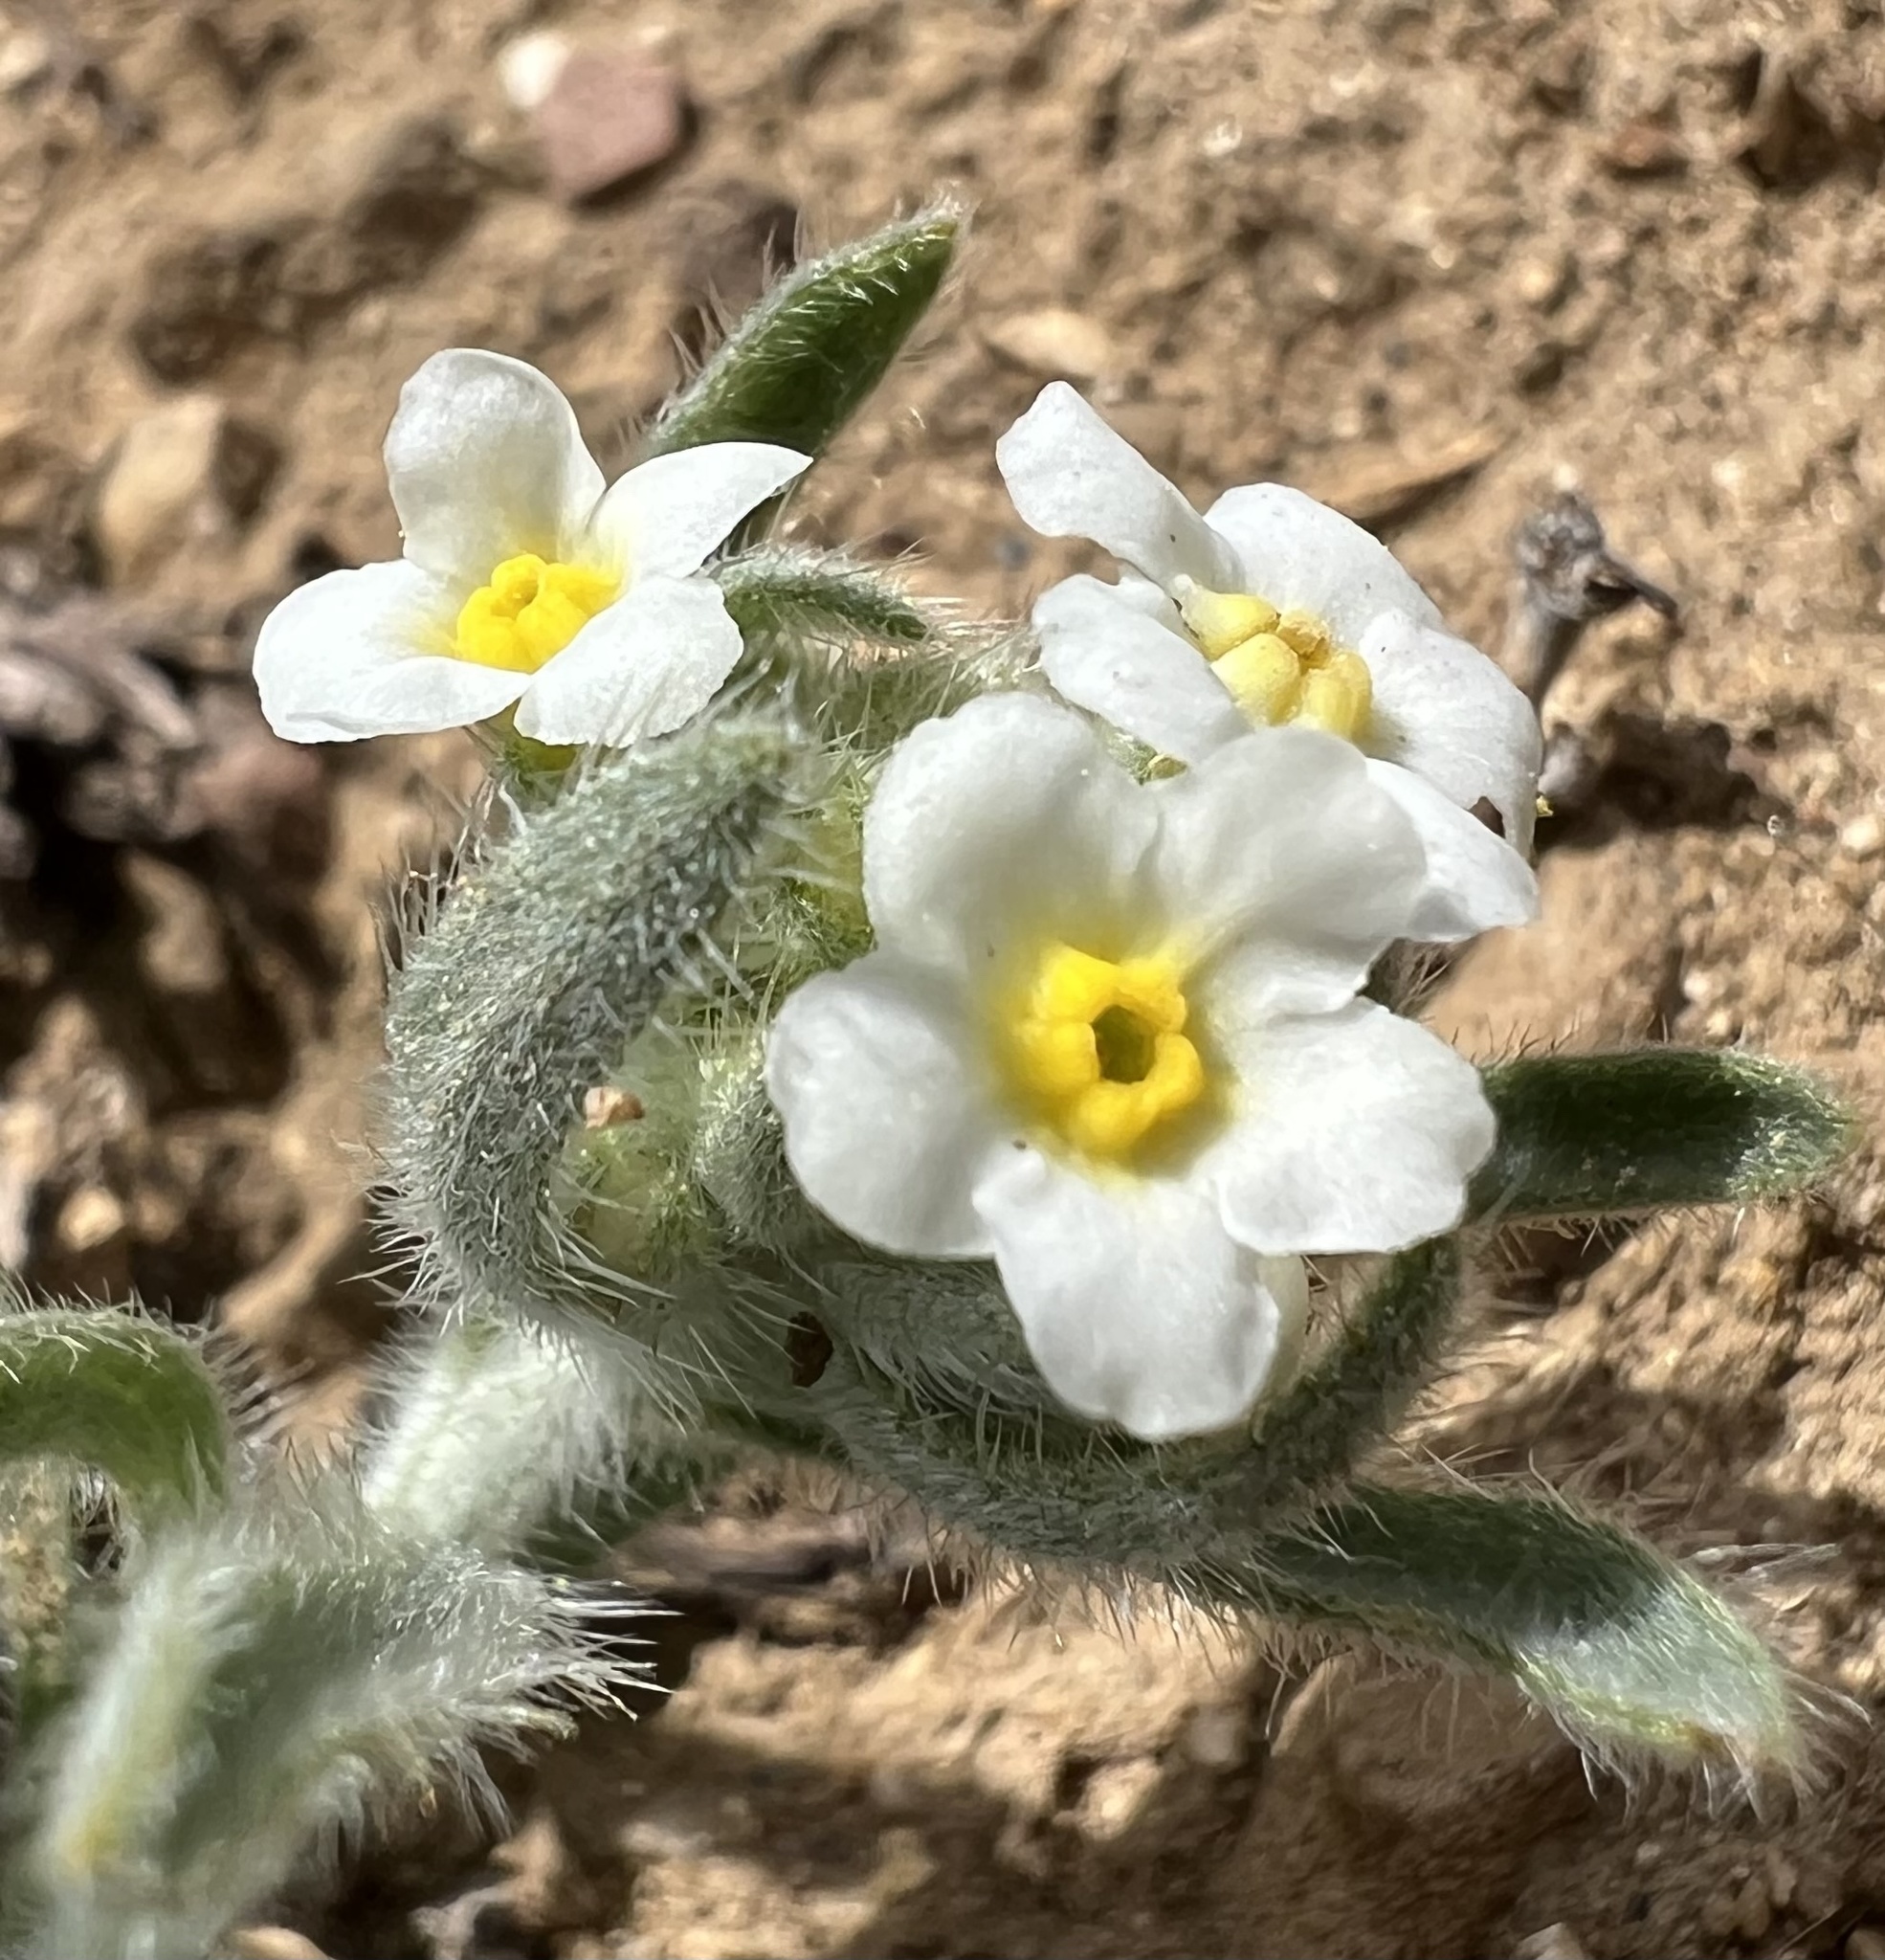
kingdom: Plantae
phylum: Tracheophyta
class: Magnoliopsida
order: Boraginales
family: Boraginaceae
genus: Oreocarya
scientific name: Oreocarya flavoculata
